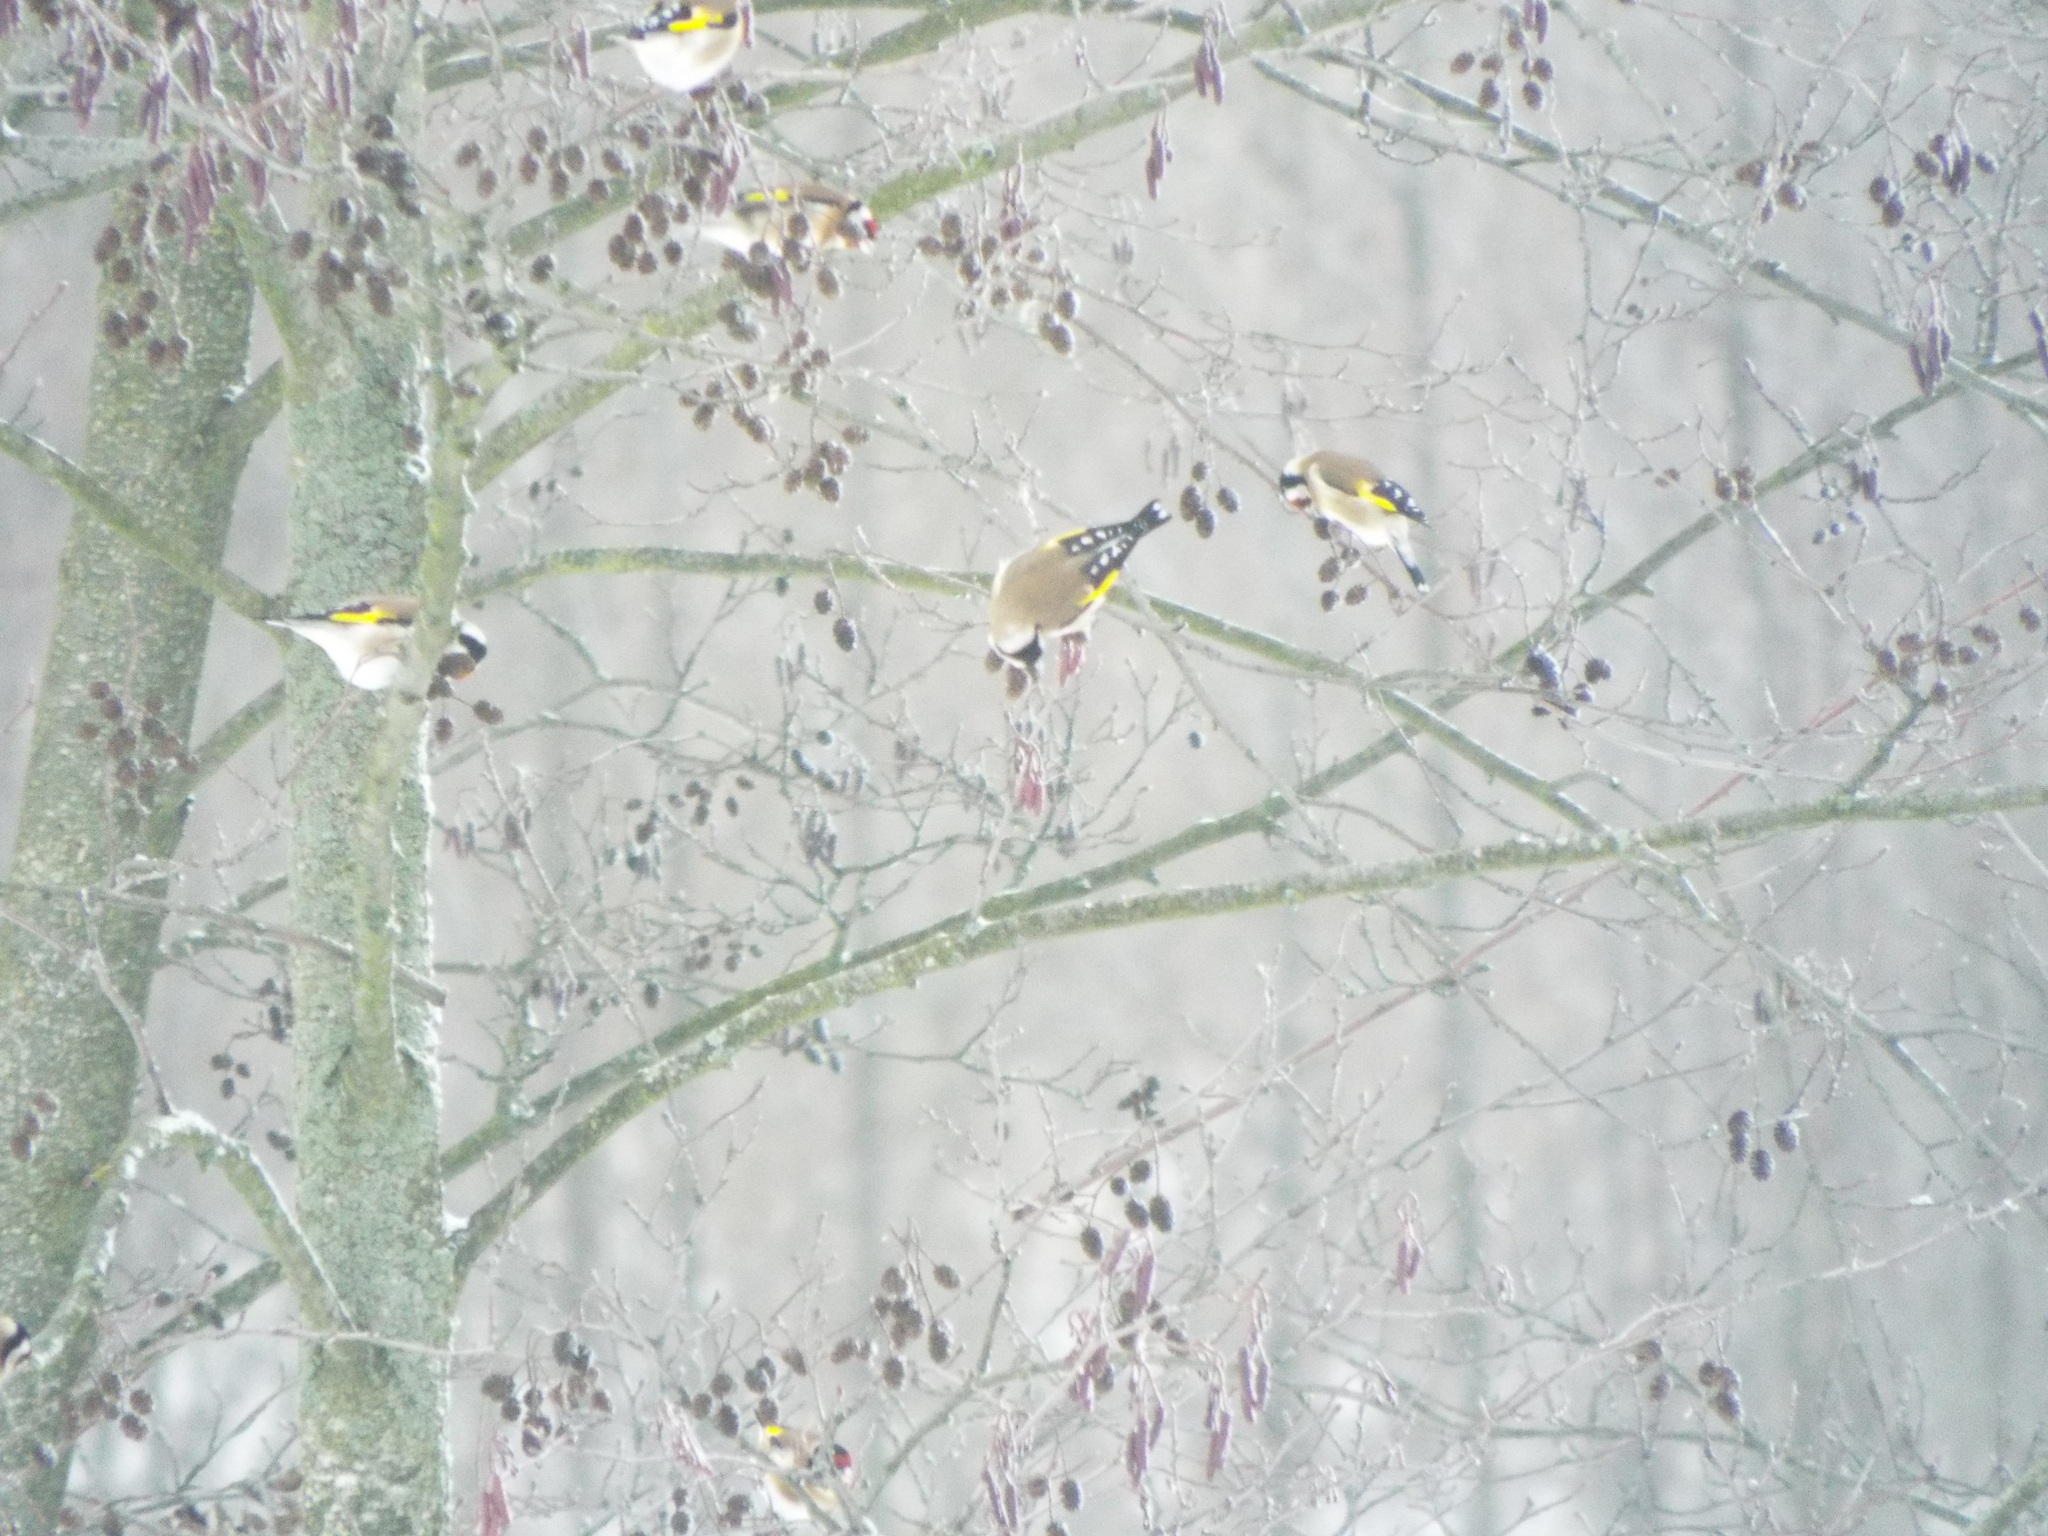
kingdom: Animalia
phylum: Chordata
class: Aves
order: Passeriformes
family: Fringillidae
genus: Carduelis
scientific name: Carduelis carduelis
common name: European goldfinch
